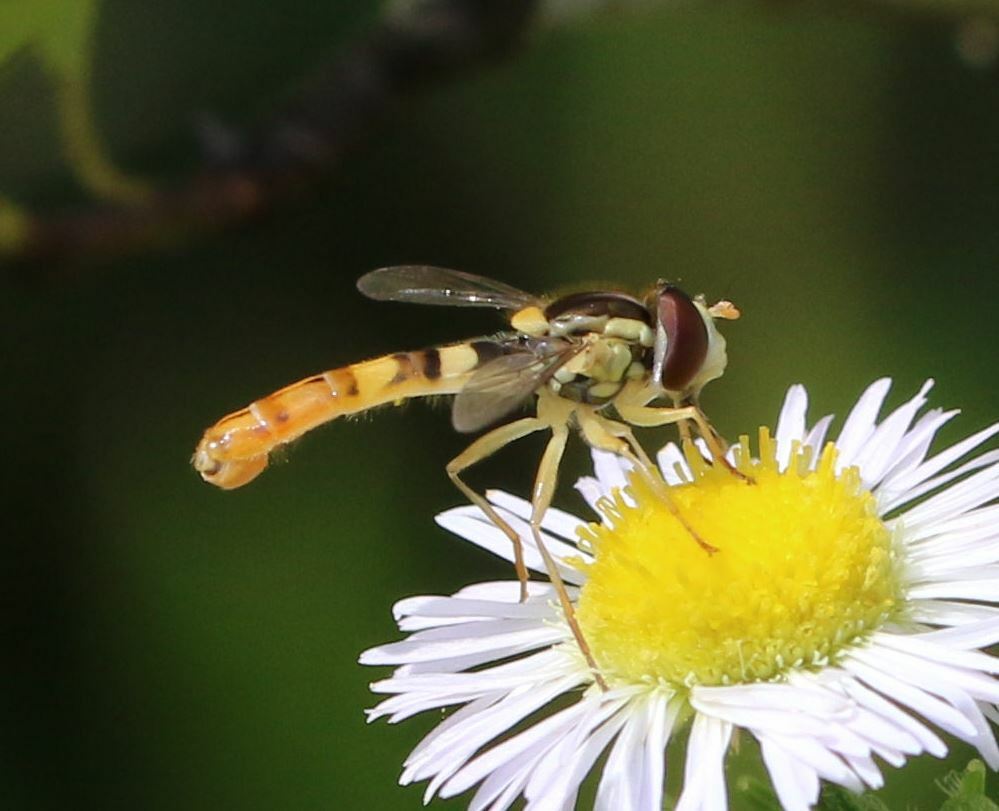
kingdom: Animalia
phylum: Arthropoda
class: Insecta
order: Diptera
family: Syrphidae
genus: Sphaerophoria
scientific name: Sphaerophoria scripta
